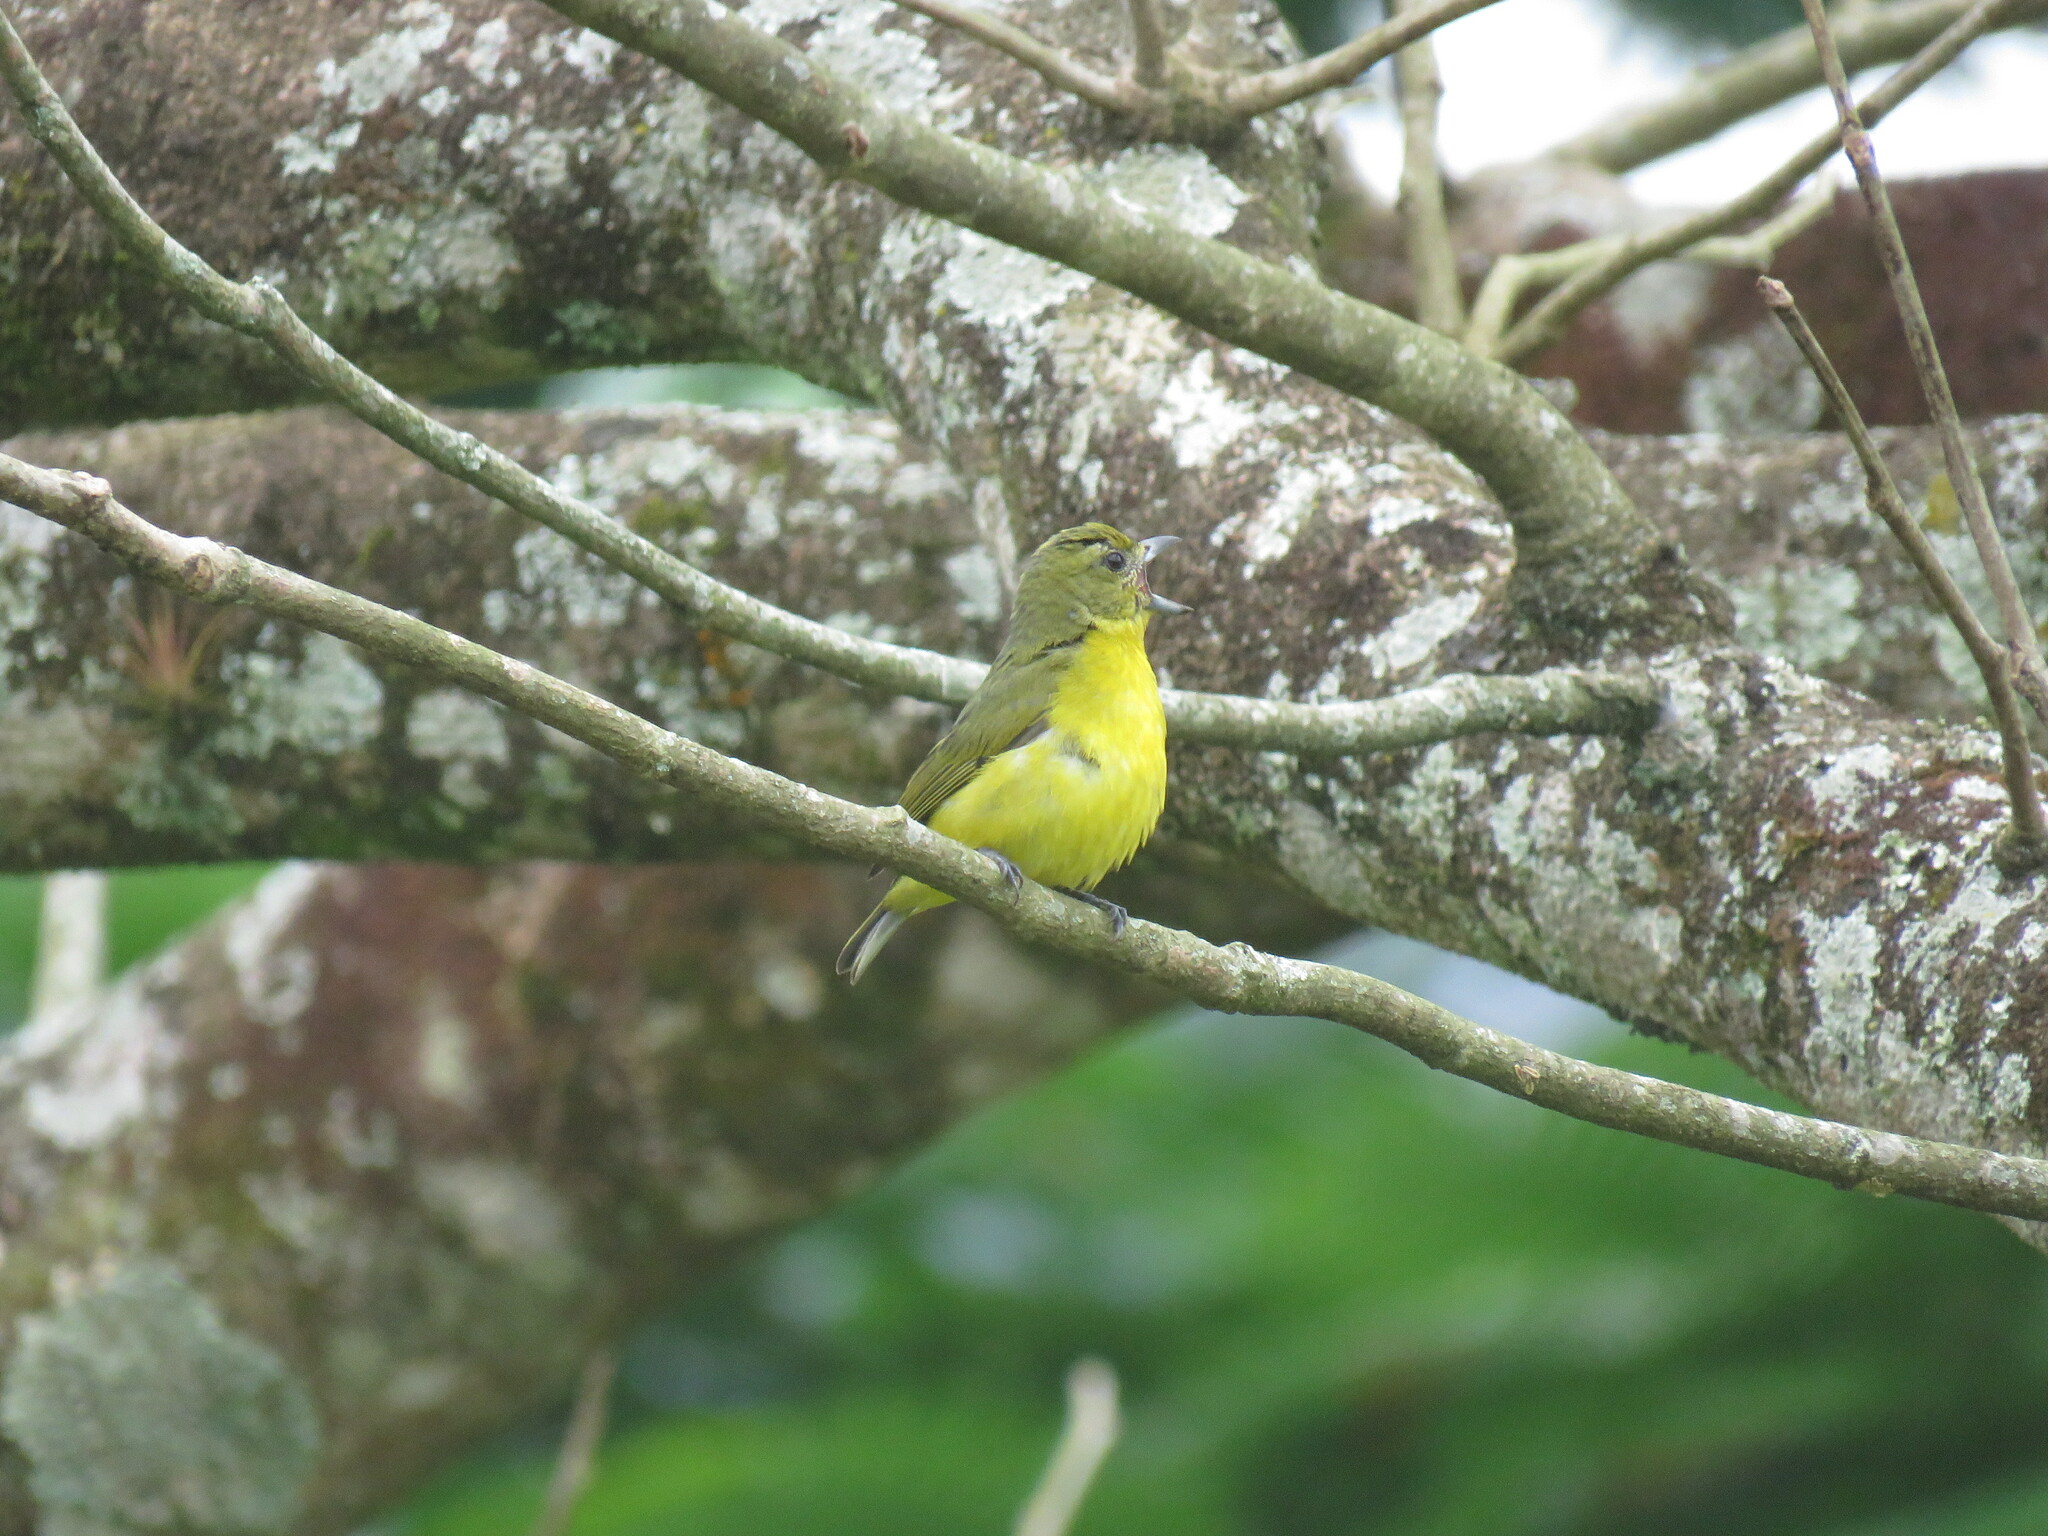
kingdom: Animalia
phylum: Chordata
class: Aves
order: Passeriformes
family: Fringillidae
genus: Euphonia
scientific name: Euphonia laniirostris
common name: Thick-billed euphonia
